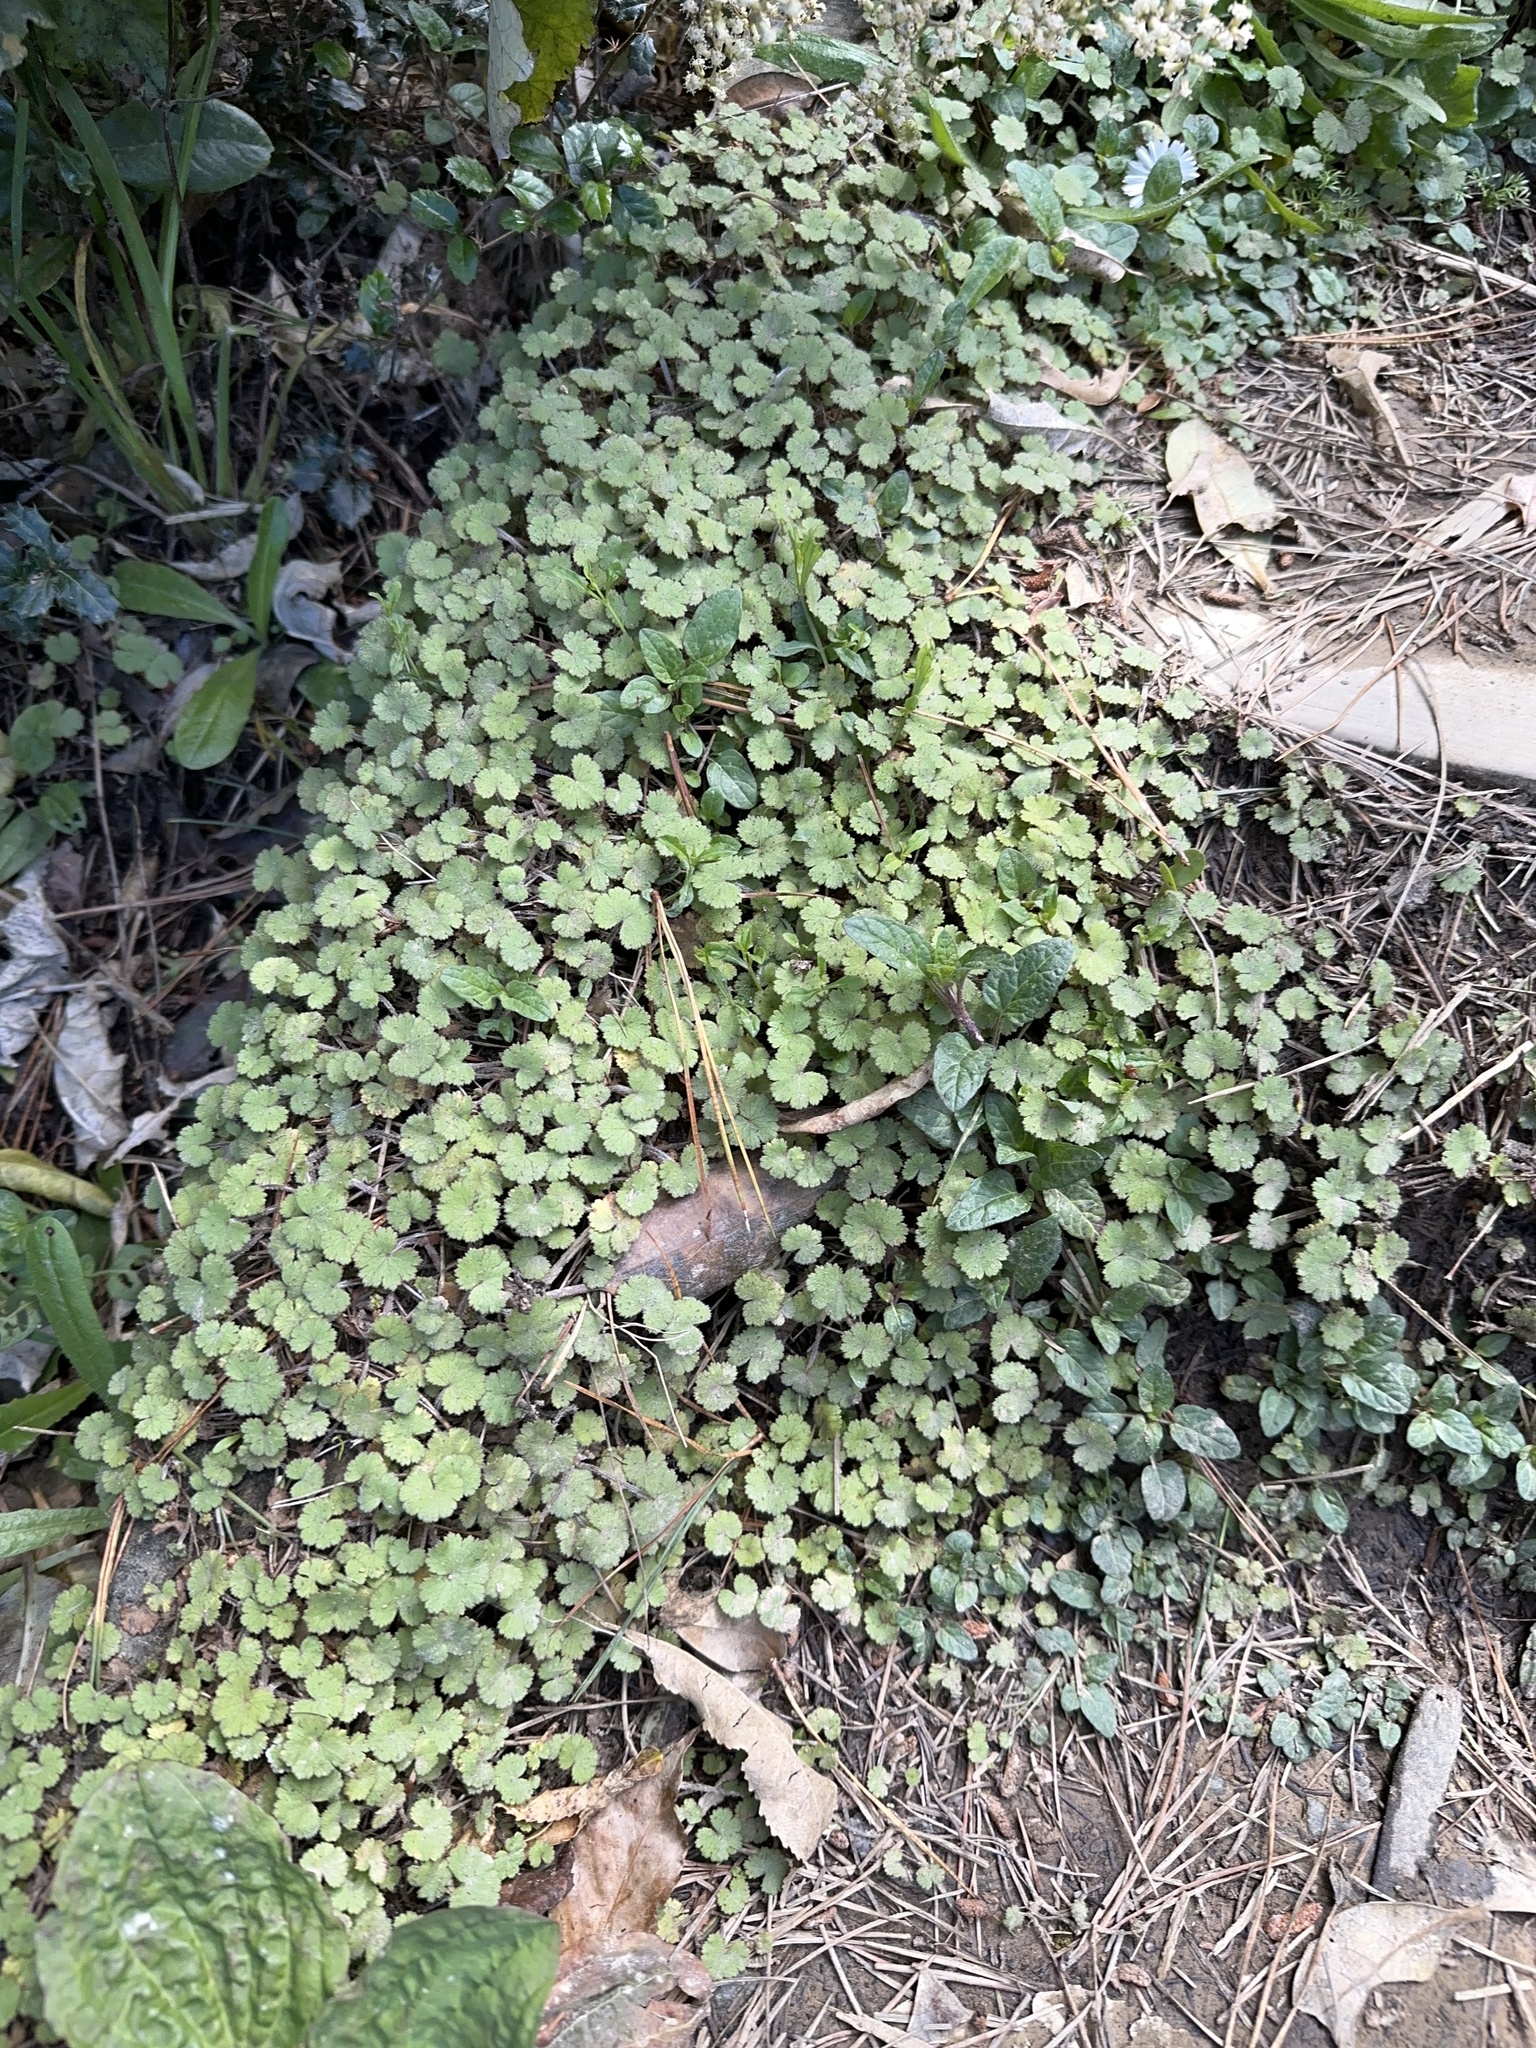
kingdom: Plantae
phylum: Tracheophyta
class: Magnoliopsida
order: Apiales
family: Araliaceae
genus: Hydrocotyle
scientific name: Hydrocotyle moschata
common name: Hairy pennywort
